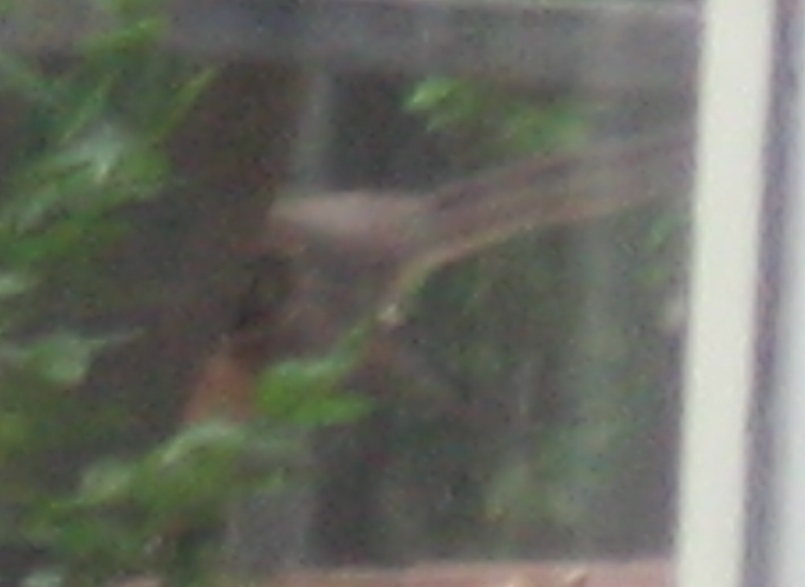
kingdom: Animalia
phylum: Chordata
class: Aves
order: Passeriformes
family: Mimidae
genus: Mimus
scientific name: Mimus polyglottos
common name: Northern mockingbird
